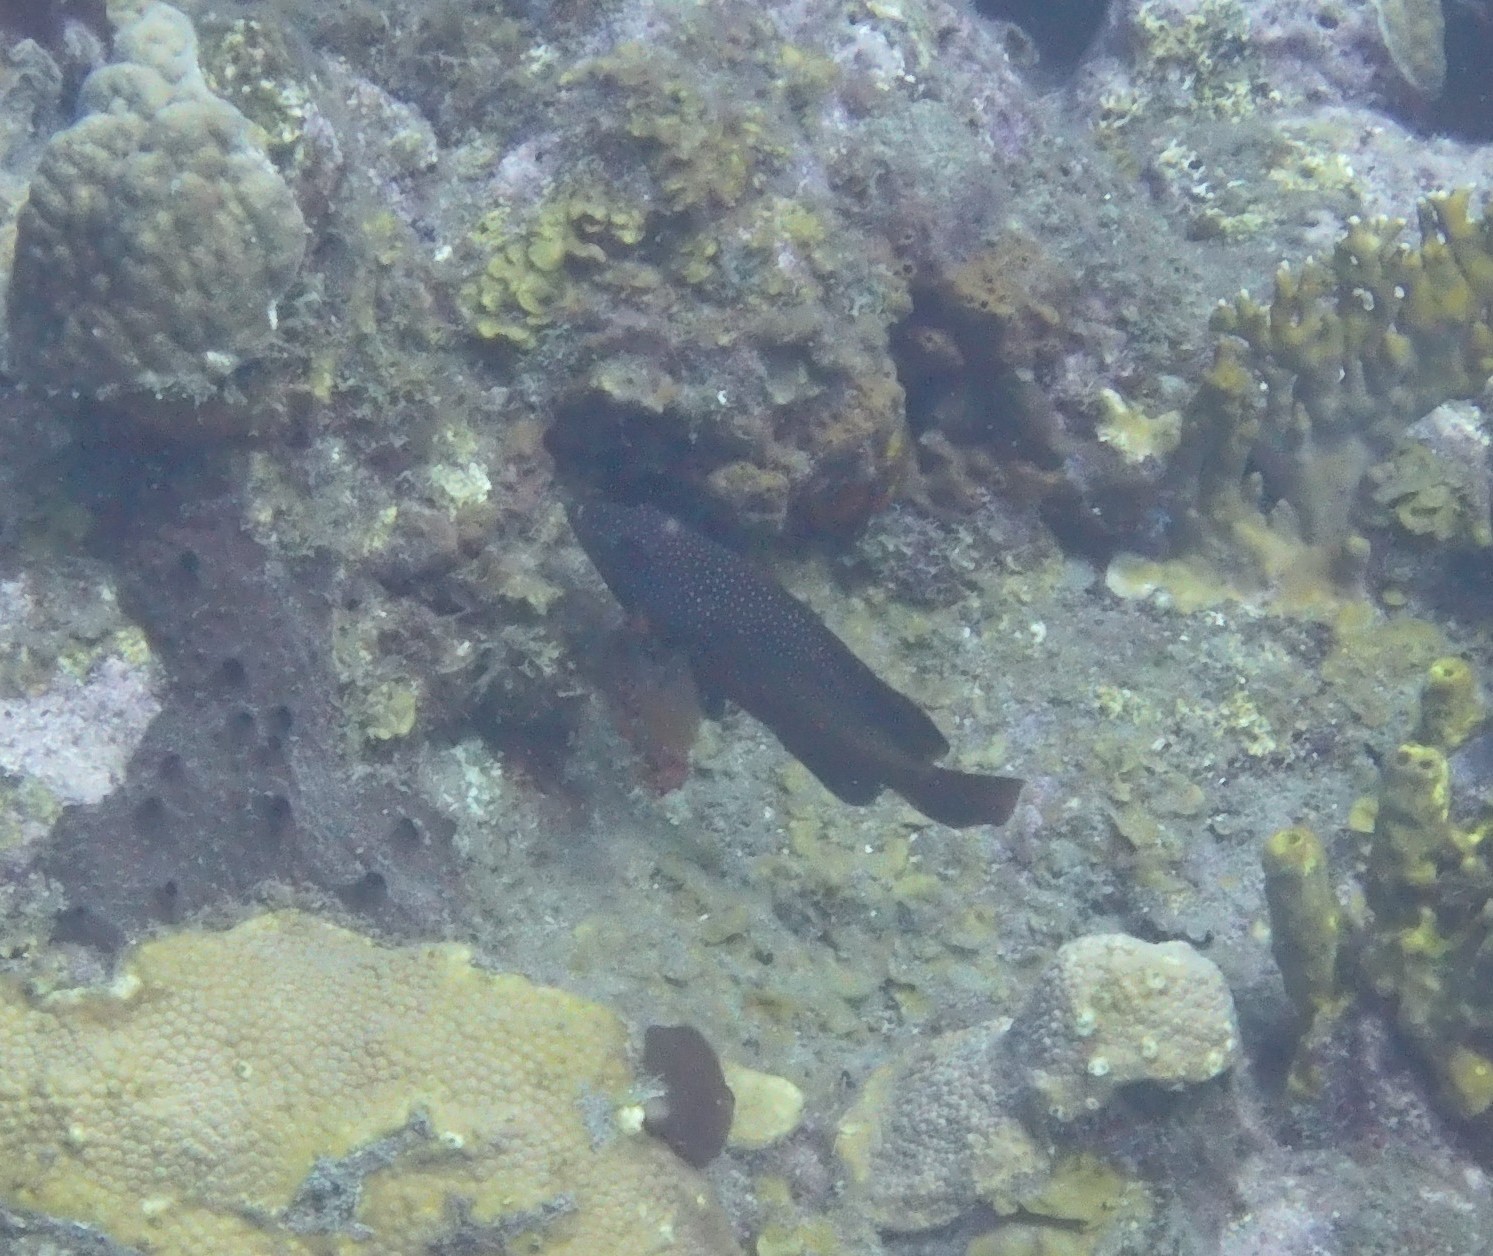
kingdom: Animalia
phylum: Chordata
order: Perciformes
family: Serranidae
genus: Cephalopholis
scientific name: Cephalopholis fulva
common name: Butterfish
